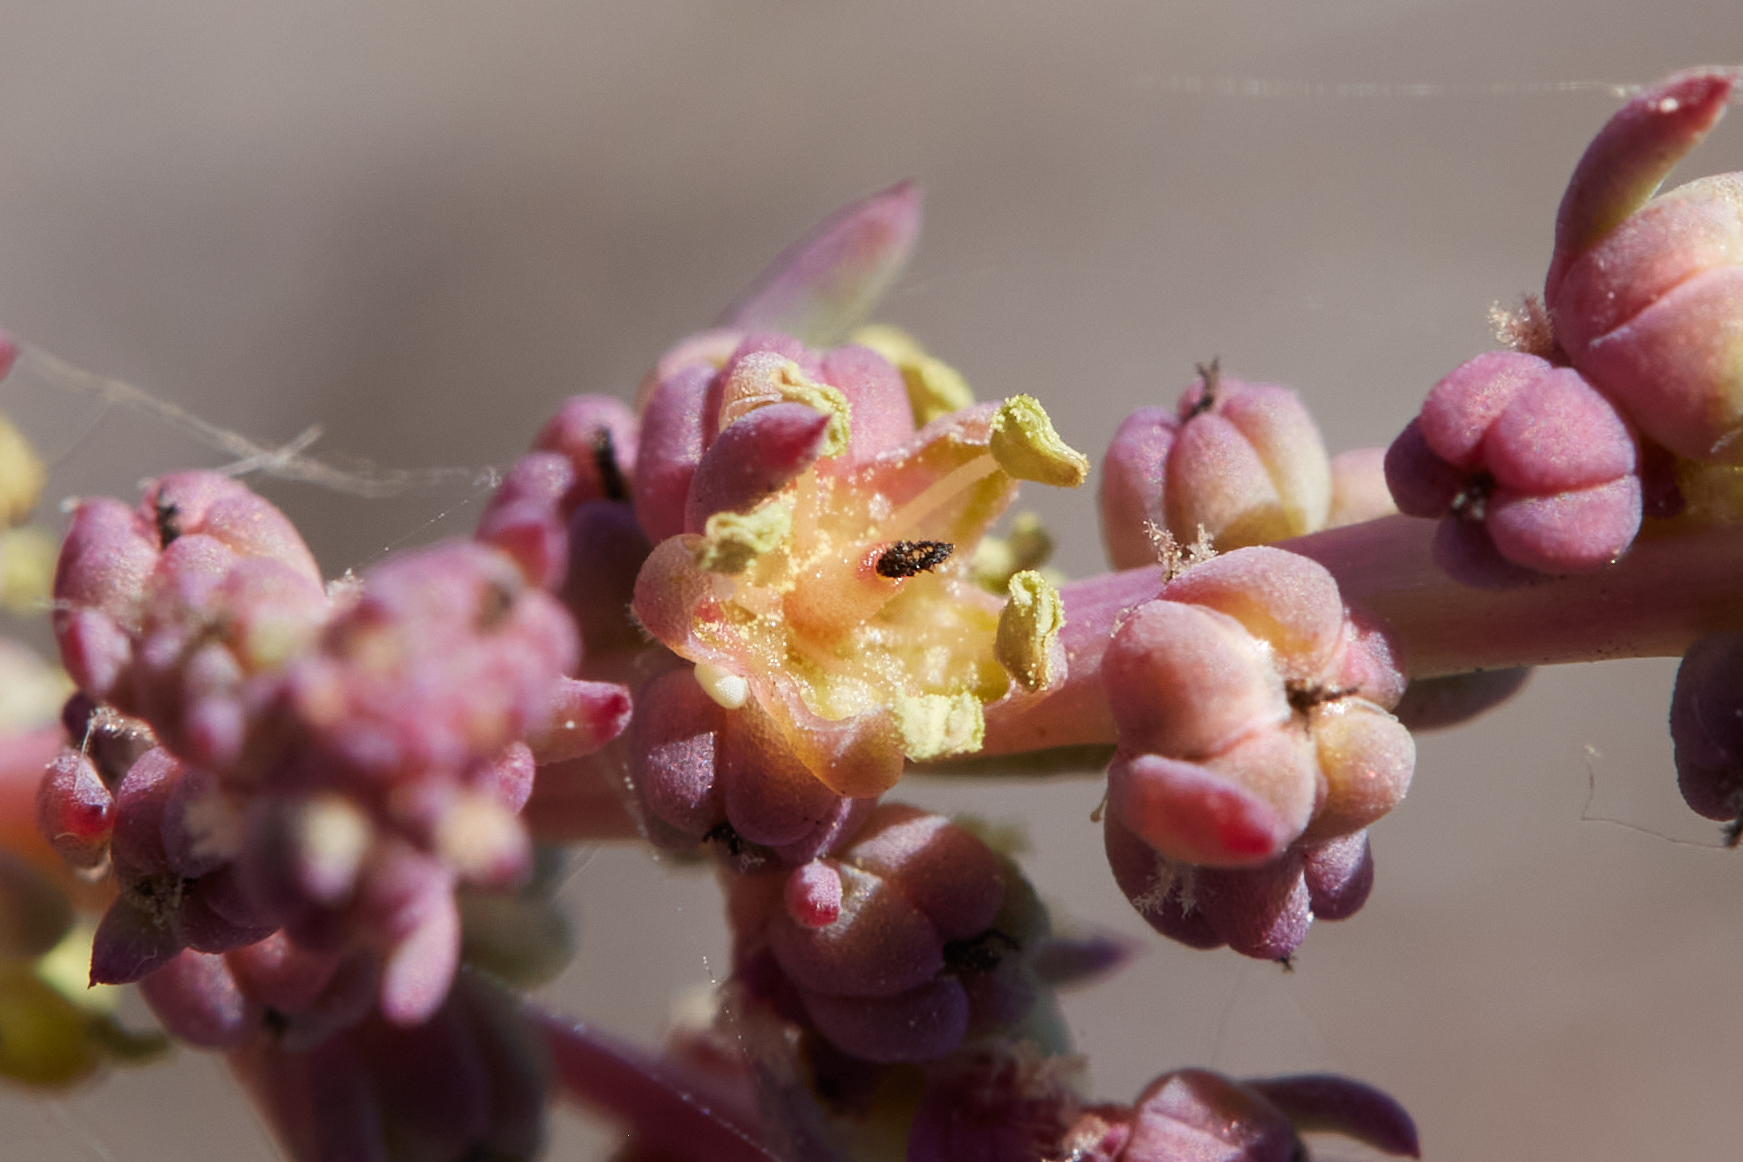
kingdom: Plantae
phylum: Tracheophyta
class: Magnoliopsida
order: Caryophyllales
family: Amaranthaceae
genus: Suaeda
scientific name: Suaeda nigra
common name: Bush seepweed
